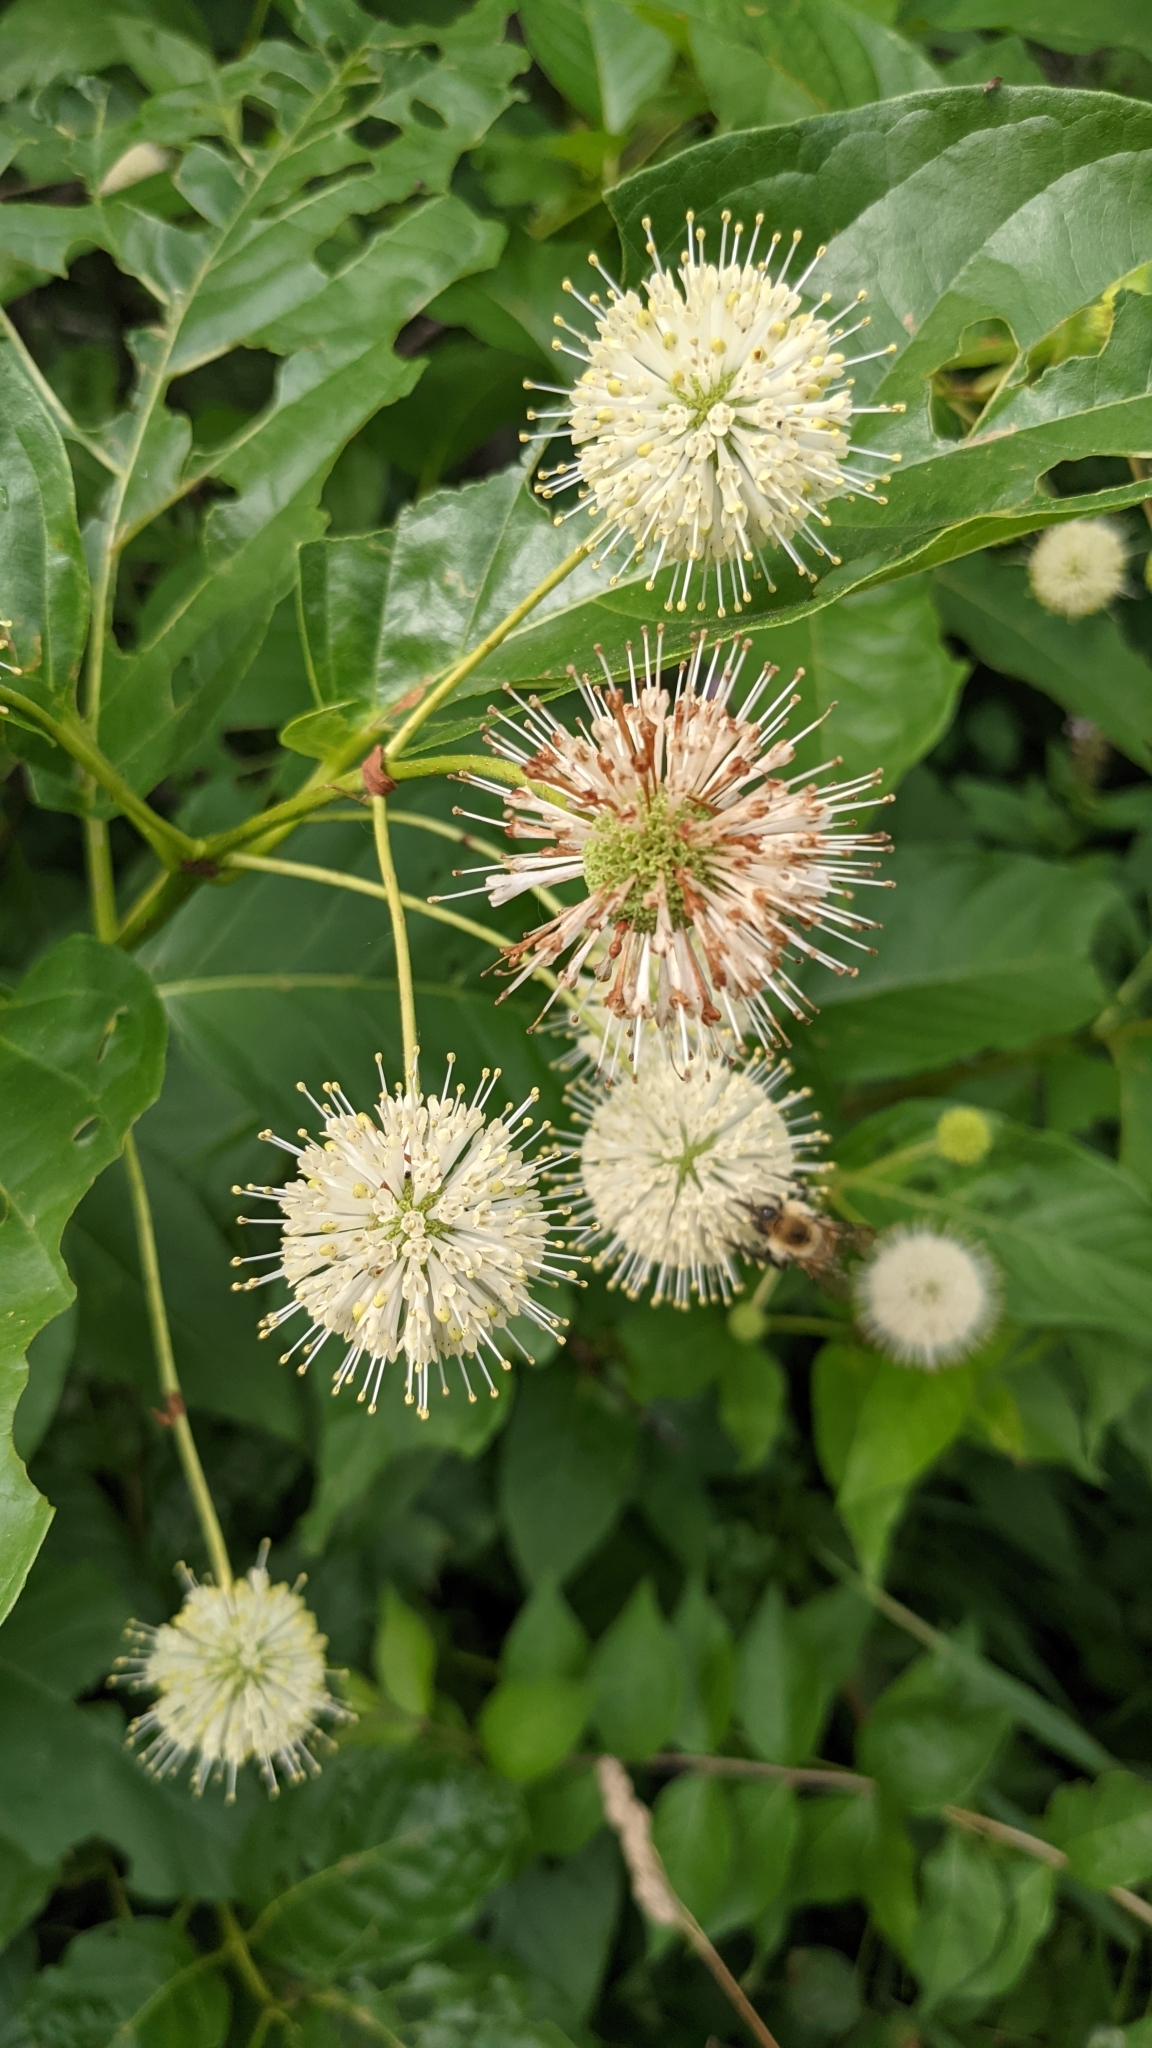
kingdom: Plantae
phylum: Tracheophyta
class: Magnoliopsida
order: Gentianales
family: Rubiaceae
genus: Cephalanthus
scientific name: Cephalanthus occidentalis
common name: Button-willow
